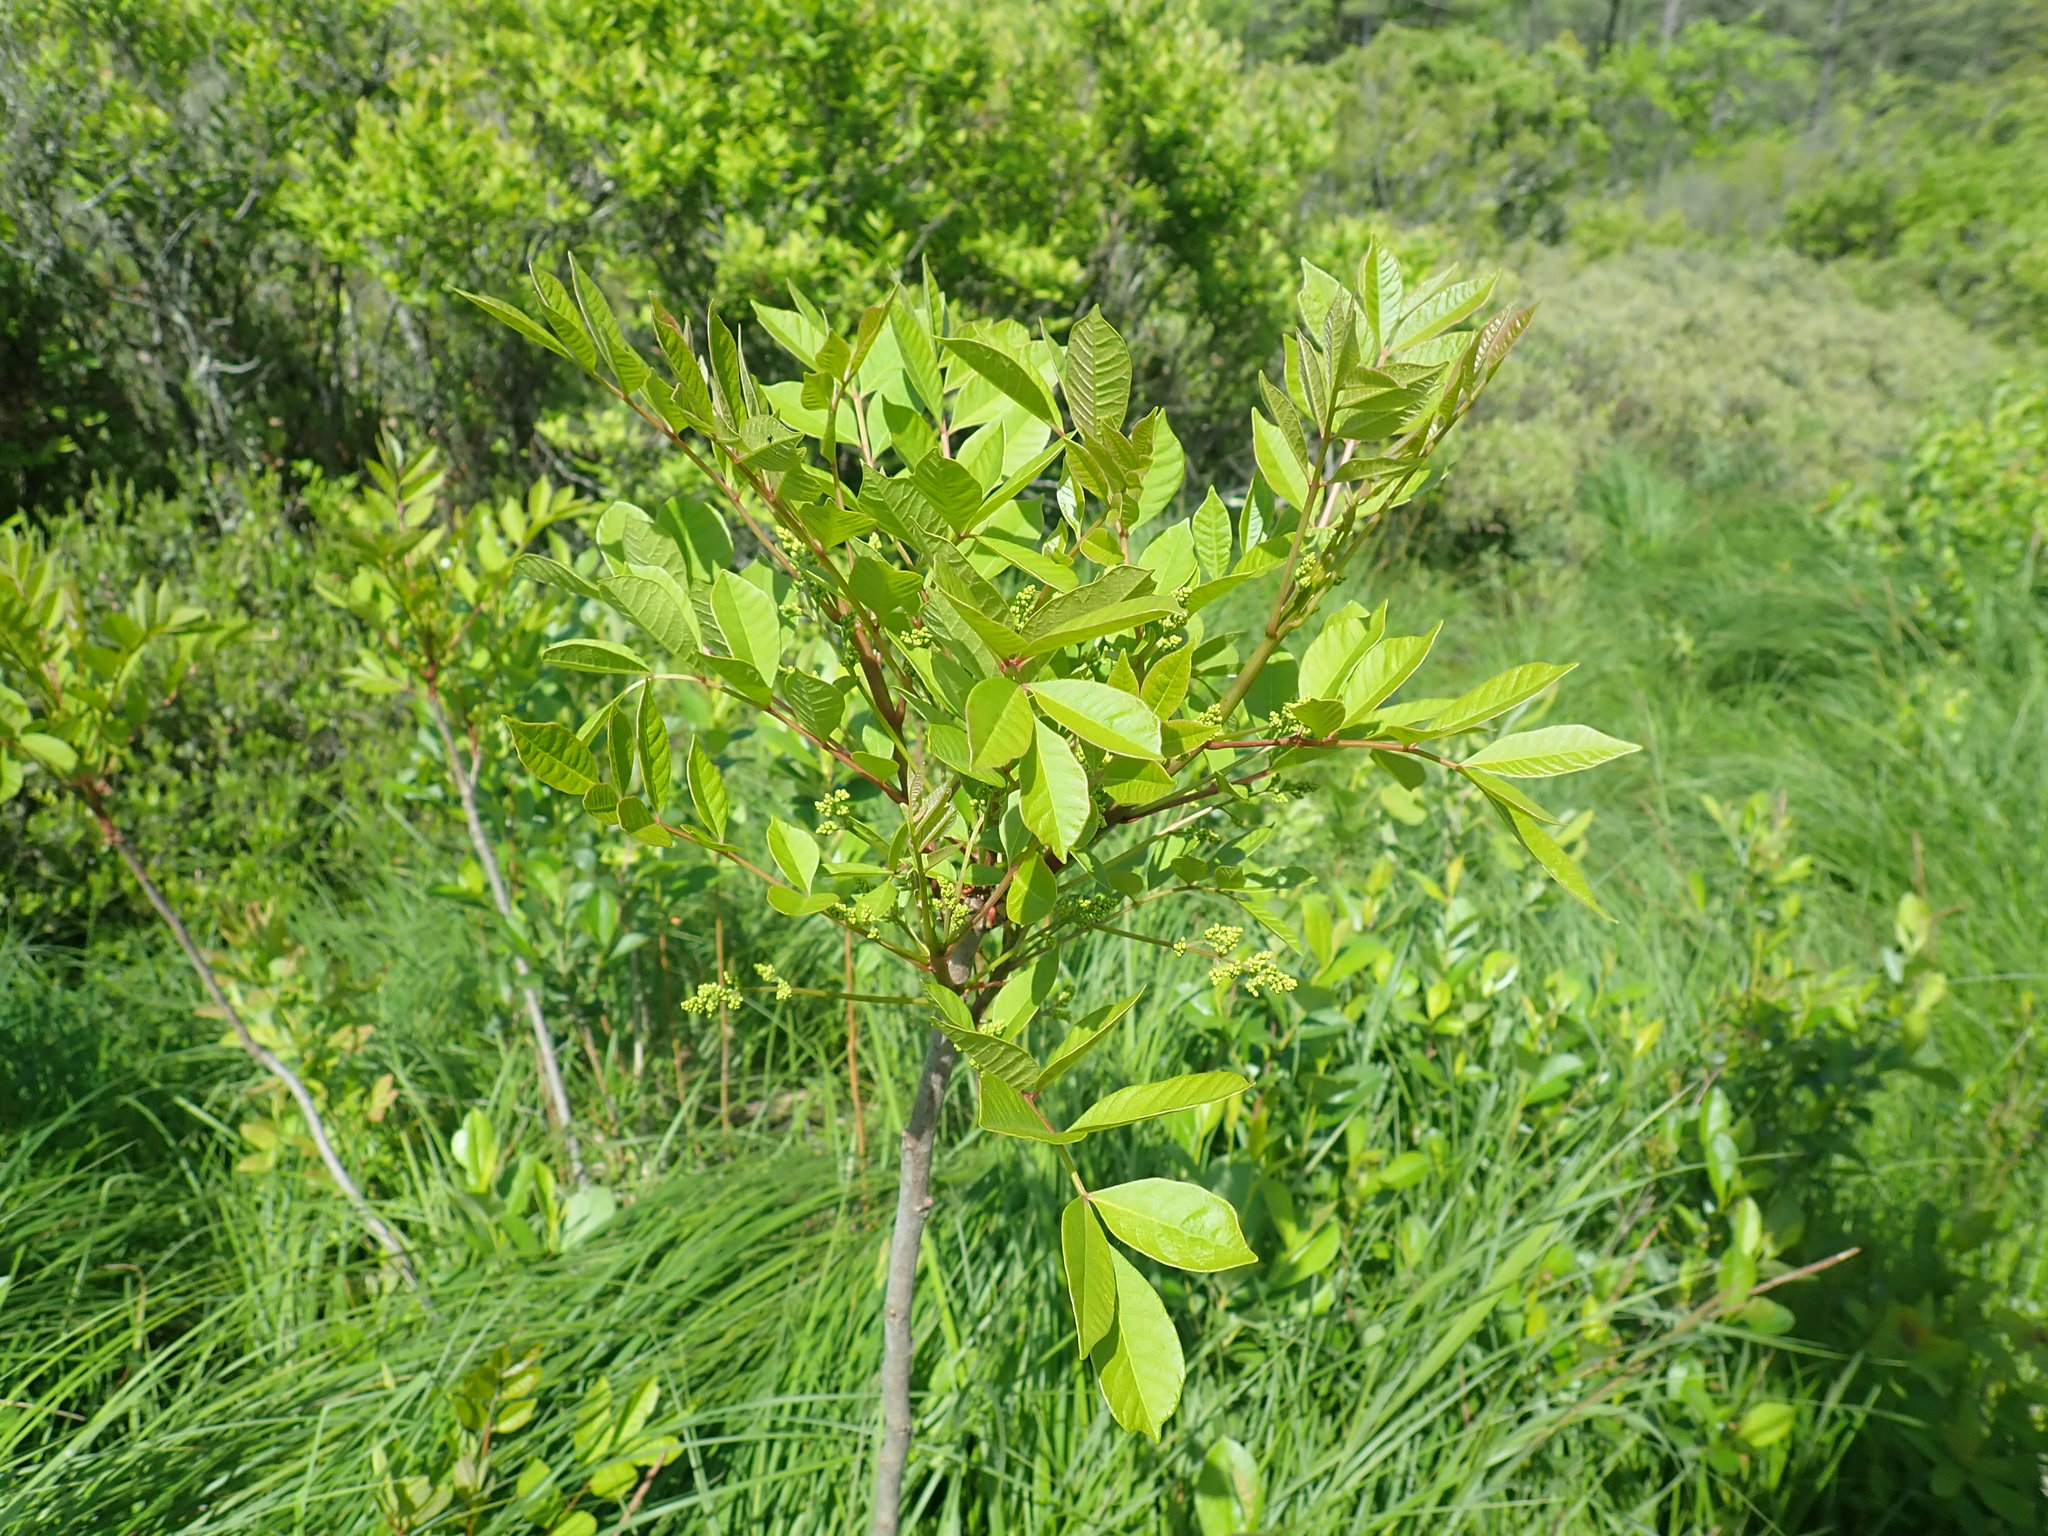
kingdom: Plantae
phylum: Tracheophyta
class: Magnoliopsida
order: Sapindales
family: Anacardiaceae
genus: Toxicodendron
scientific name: Toxicodendron vernix
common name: Poison sumac
